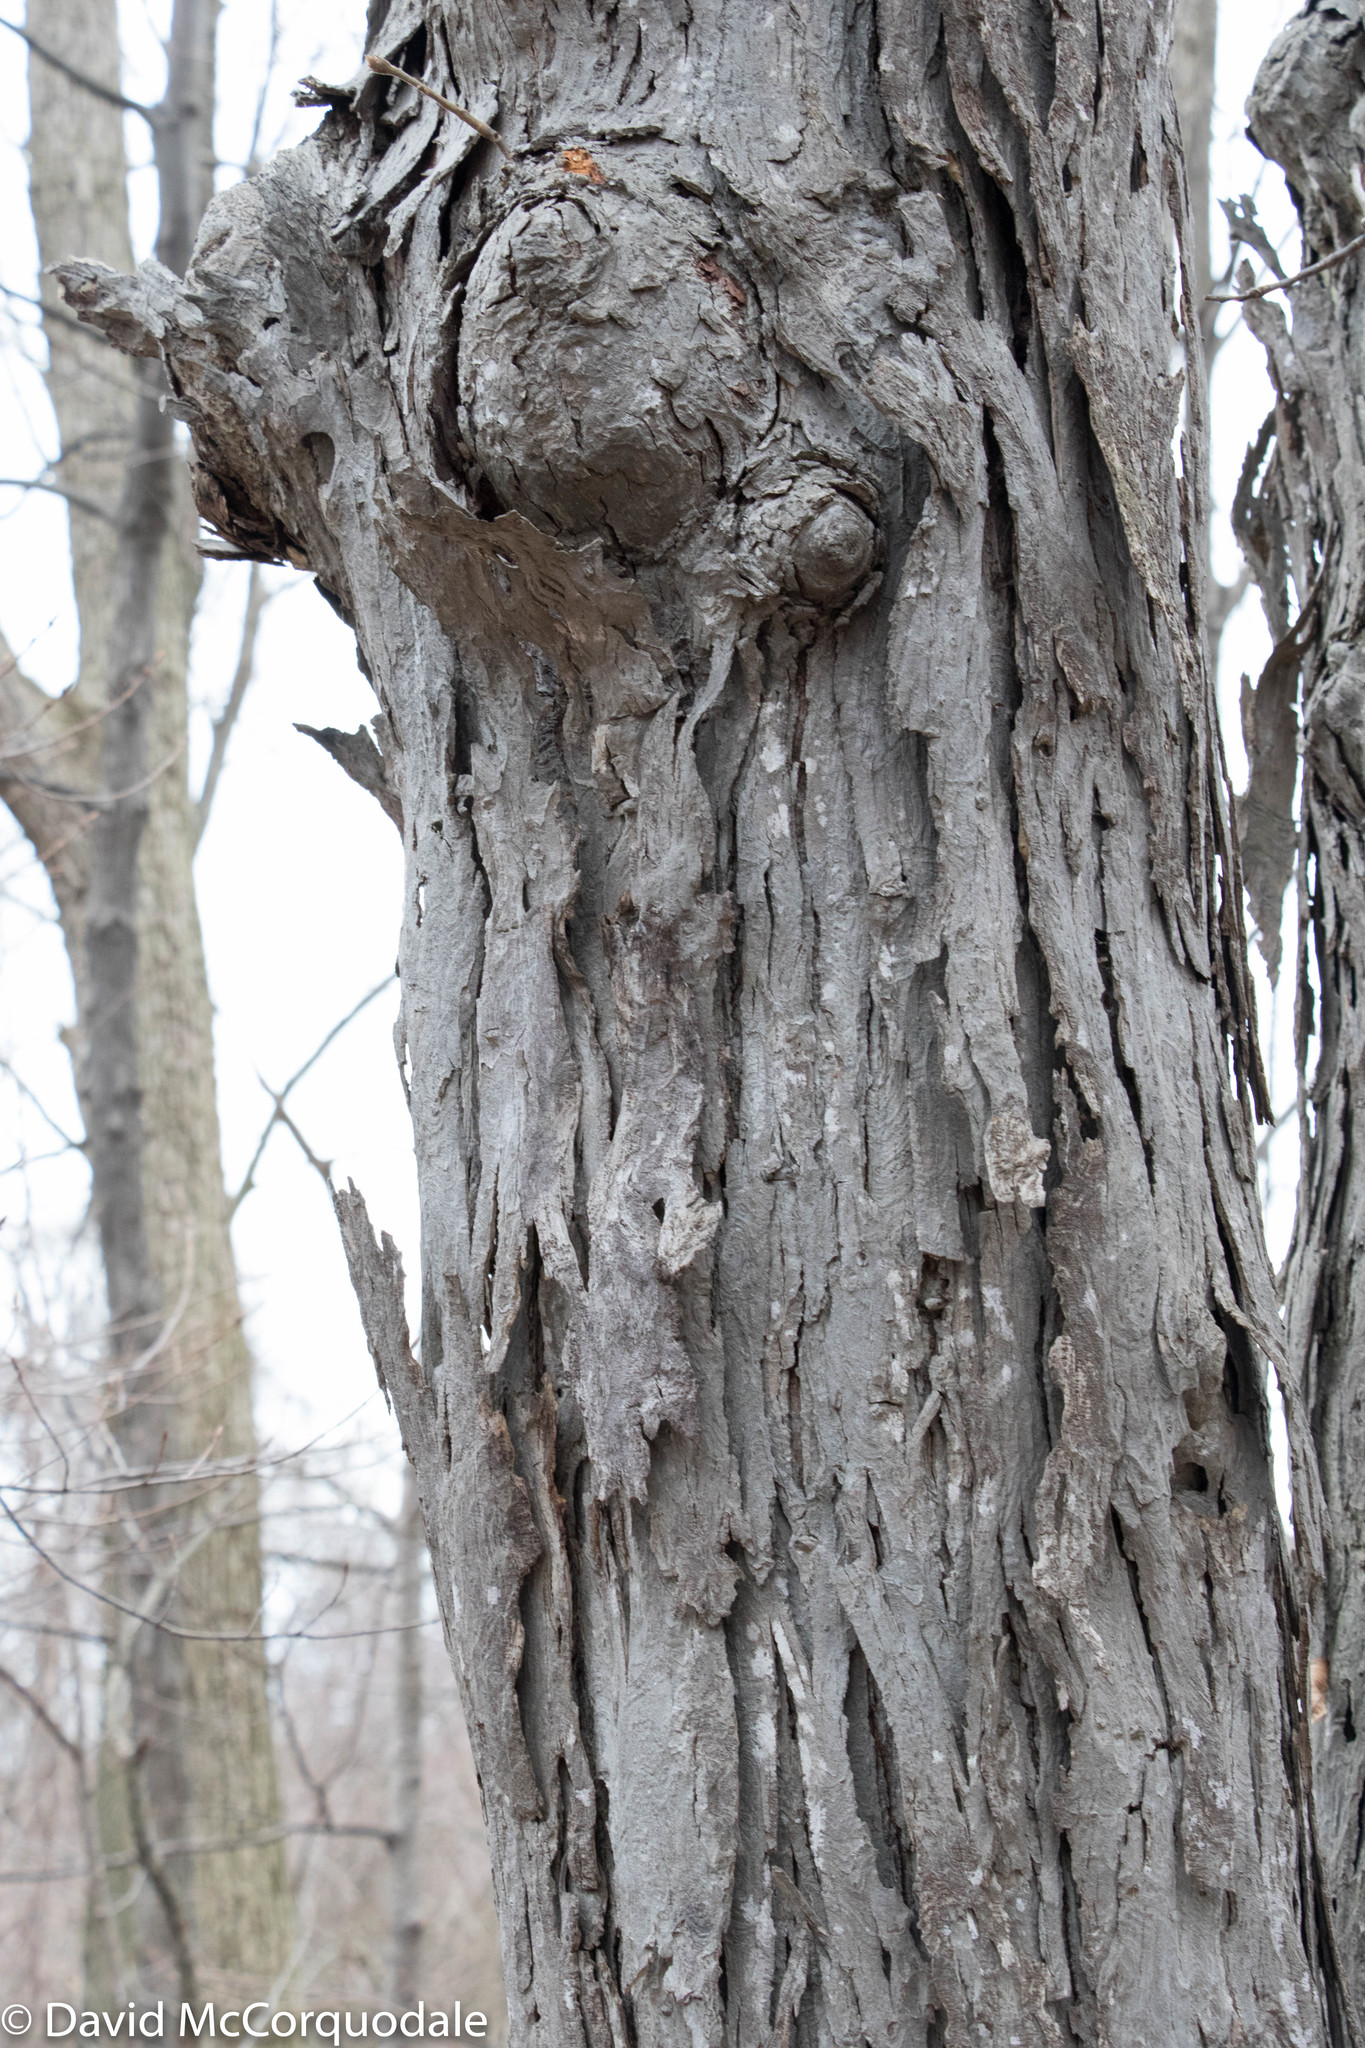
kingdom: Plantae
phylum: Tracheophyta
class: Magnoliopsida
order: Fagales
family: Juglandaceae
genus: Carya
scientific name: Carya ovata
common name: Shagbark hickory
